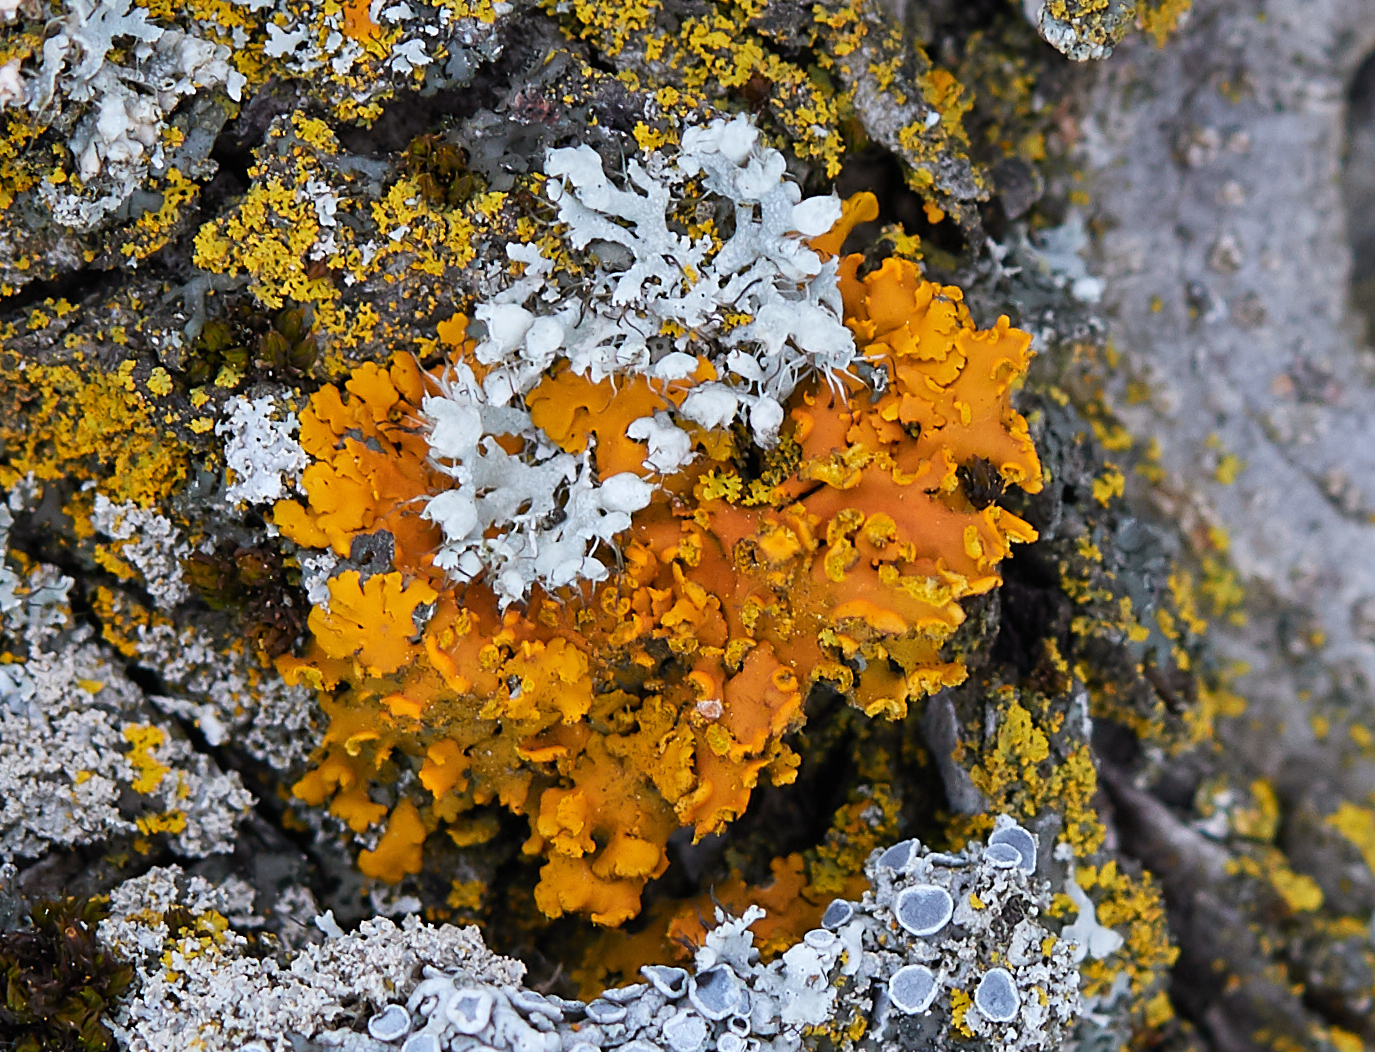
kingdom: Fungi
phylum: Ascomycota
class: Lecanoromycetes
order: Teloschistales
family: Teloschistaceae
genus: Oxneria
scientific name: Oxneria fallax
